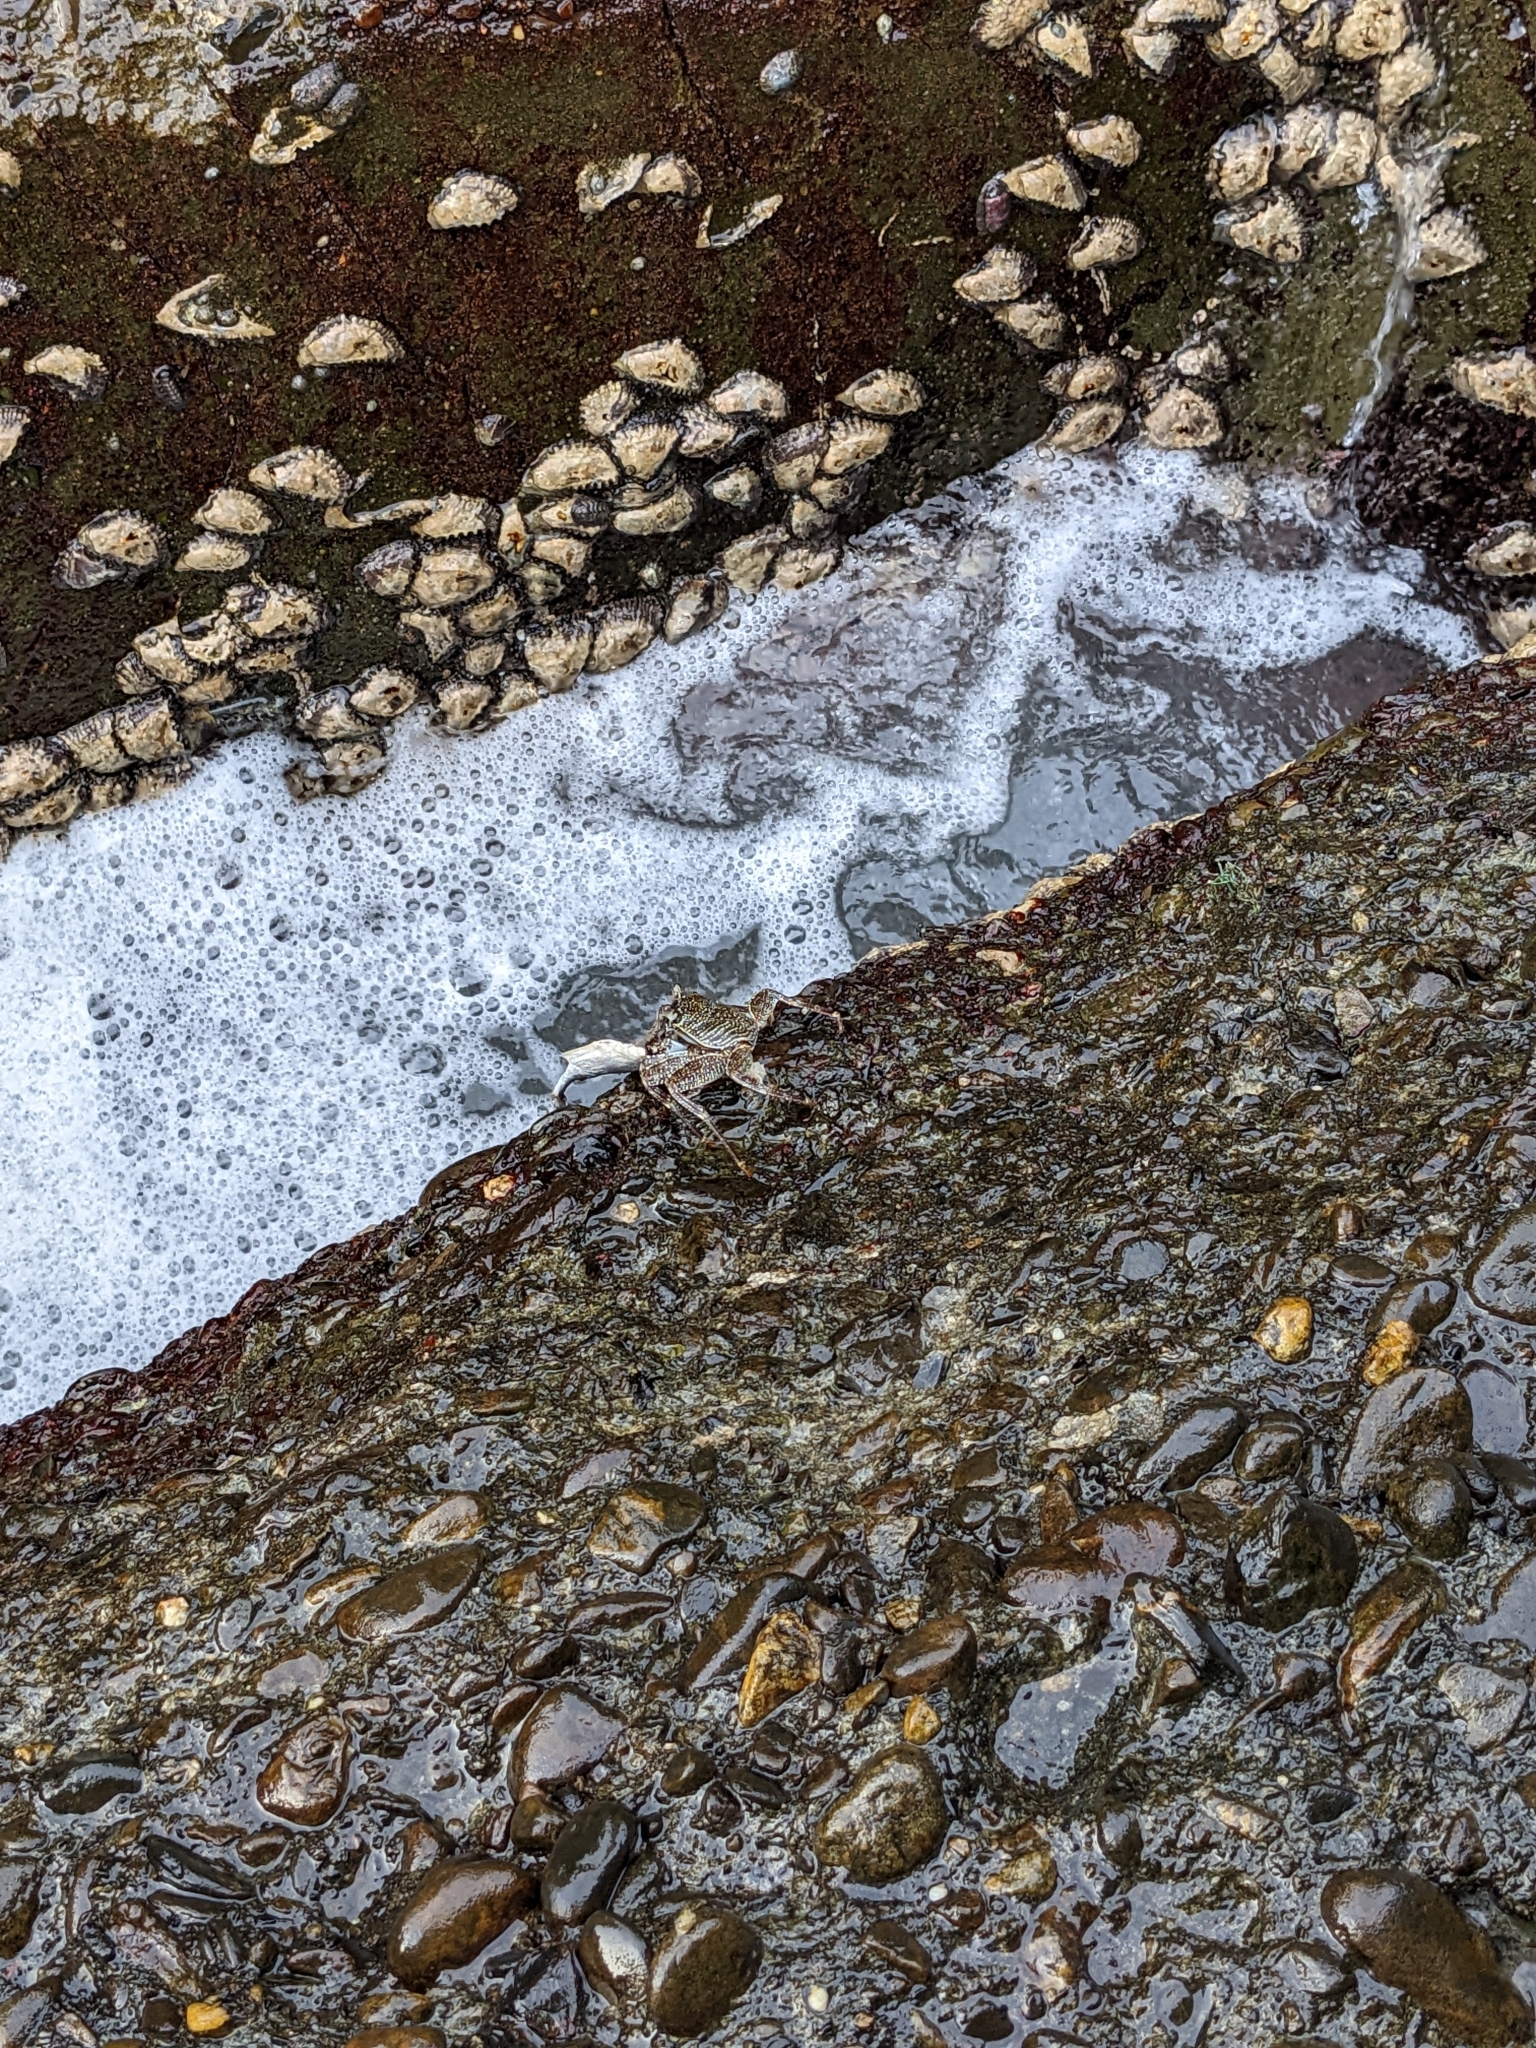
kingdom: Animalia
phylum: Arthropoda
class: Malacostraca
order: Decapoda
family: Grapsidae
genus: Grapsus
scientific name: Grapsus albolineatus
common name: Mottled lightfoot crab
